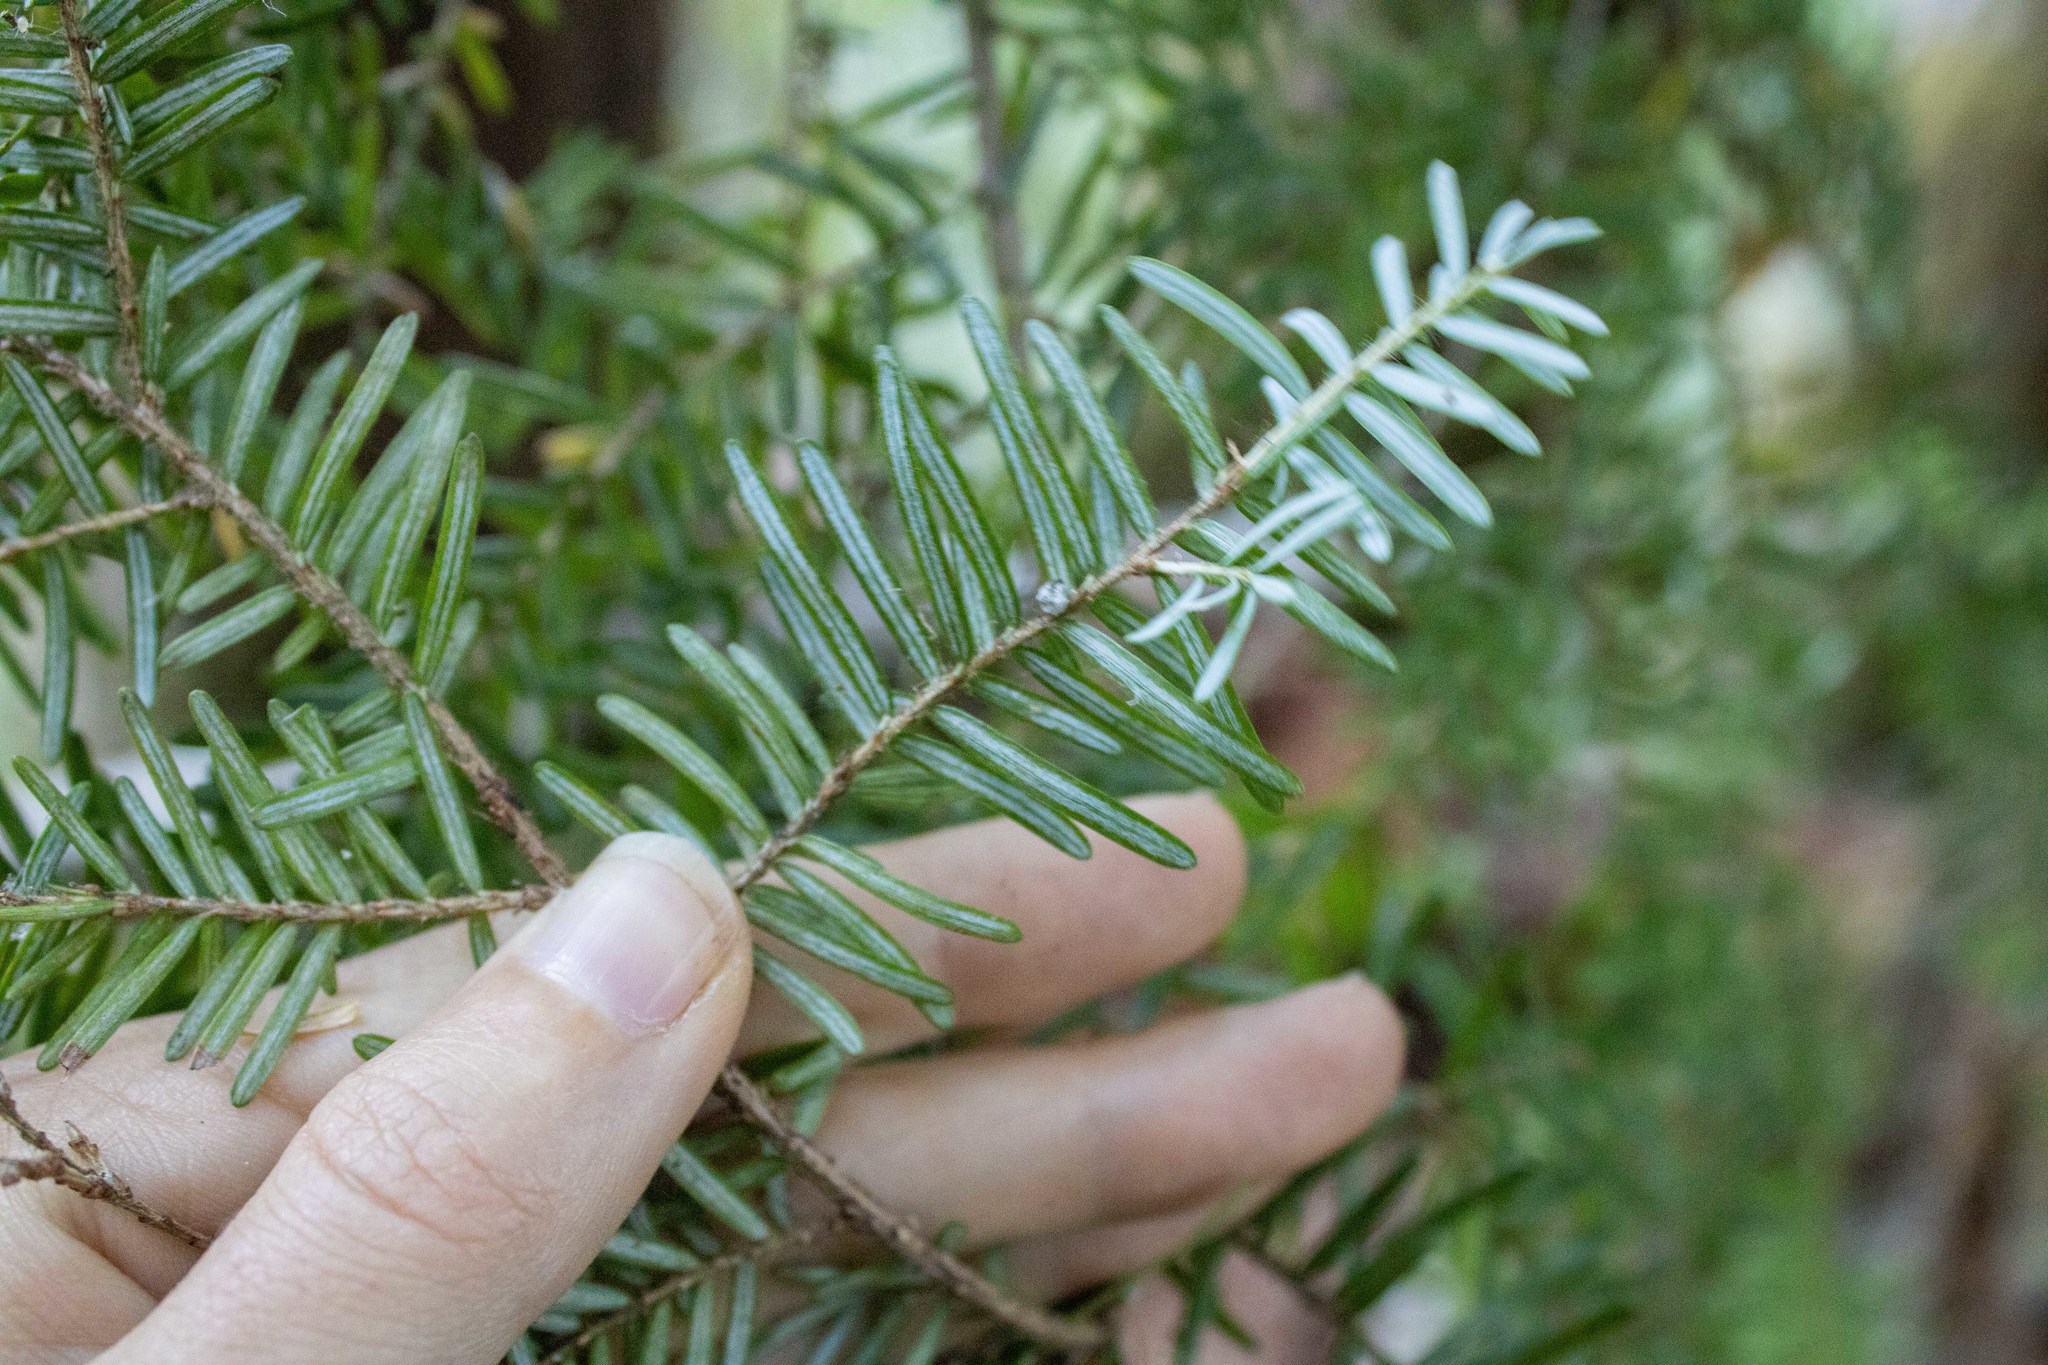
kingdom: Plantae
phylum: Tracheophyta
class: Pinopsida
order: Pinales
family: Pinaceae
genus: Tsuga
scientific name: Tsuga heterophylla
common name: Western hemlock
